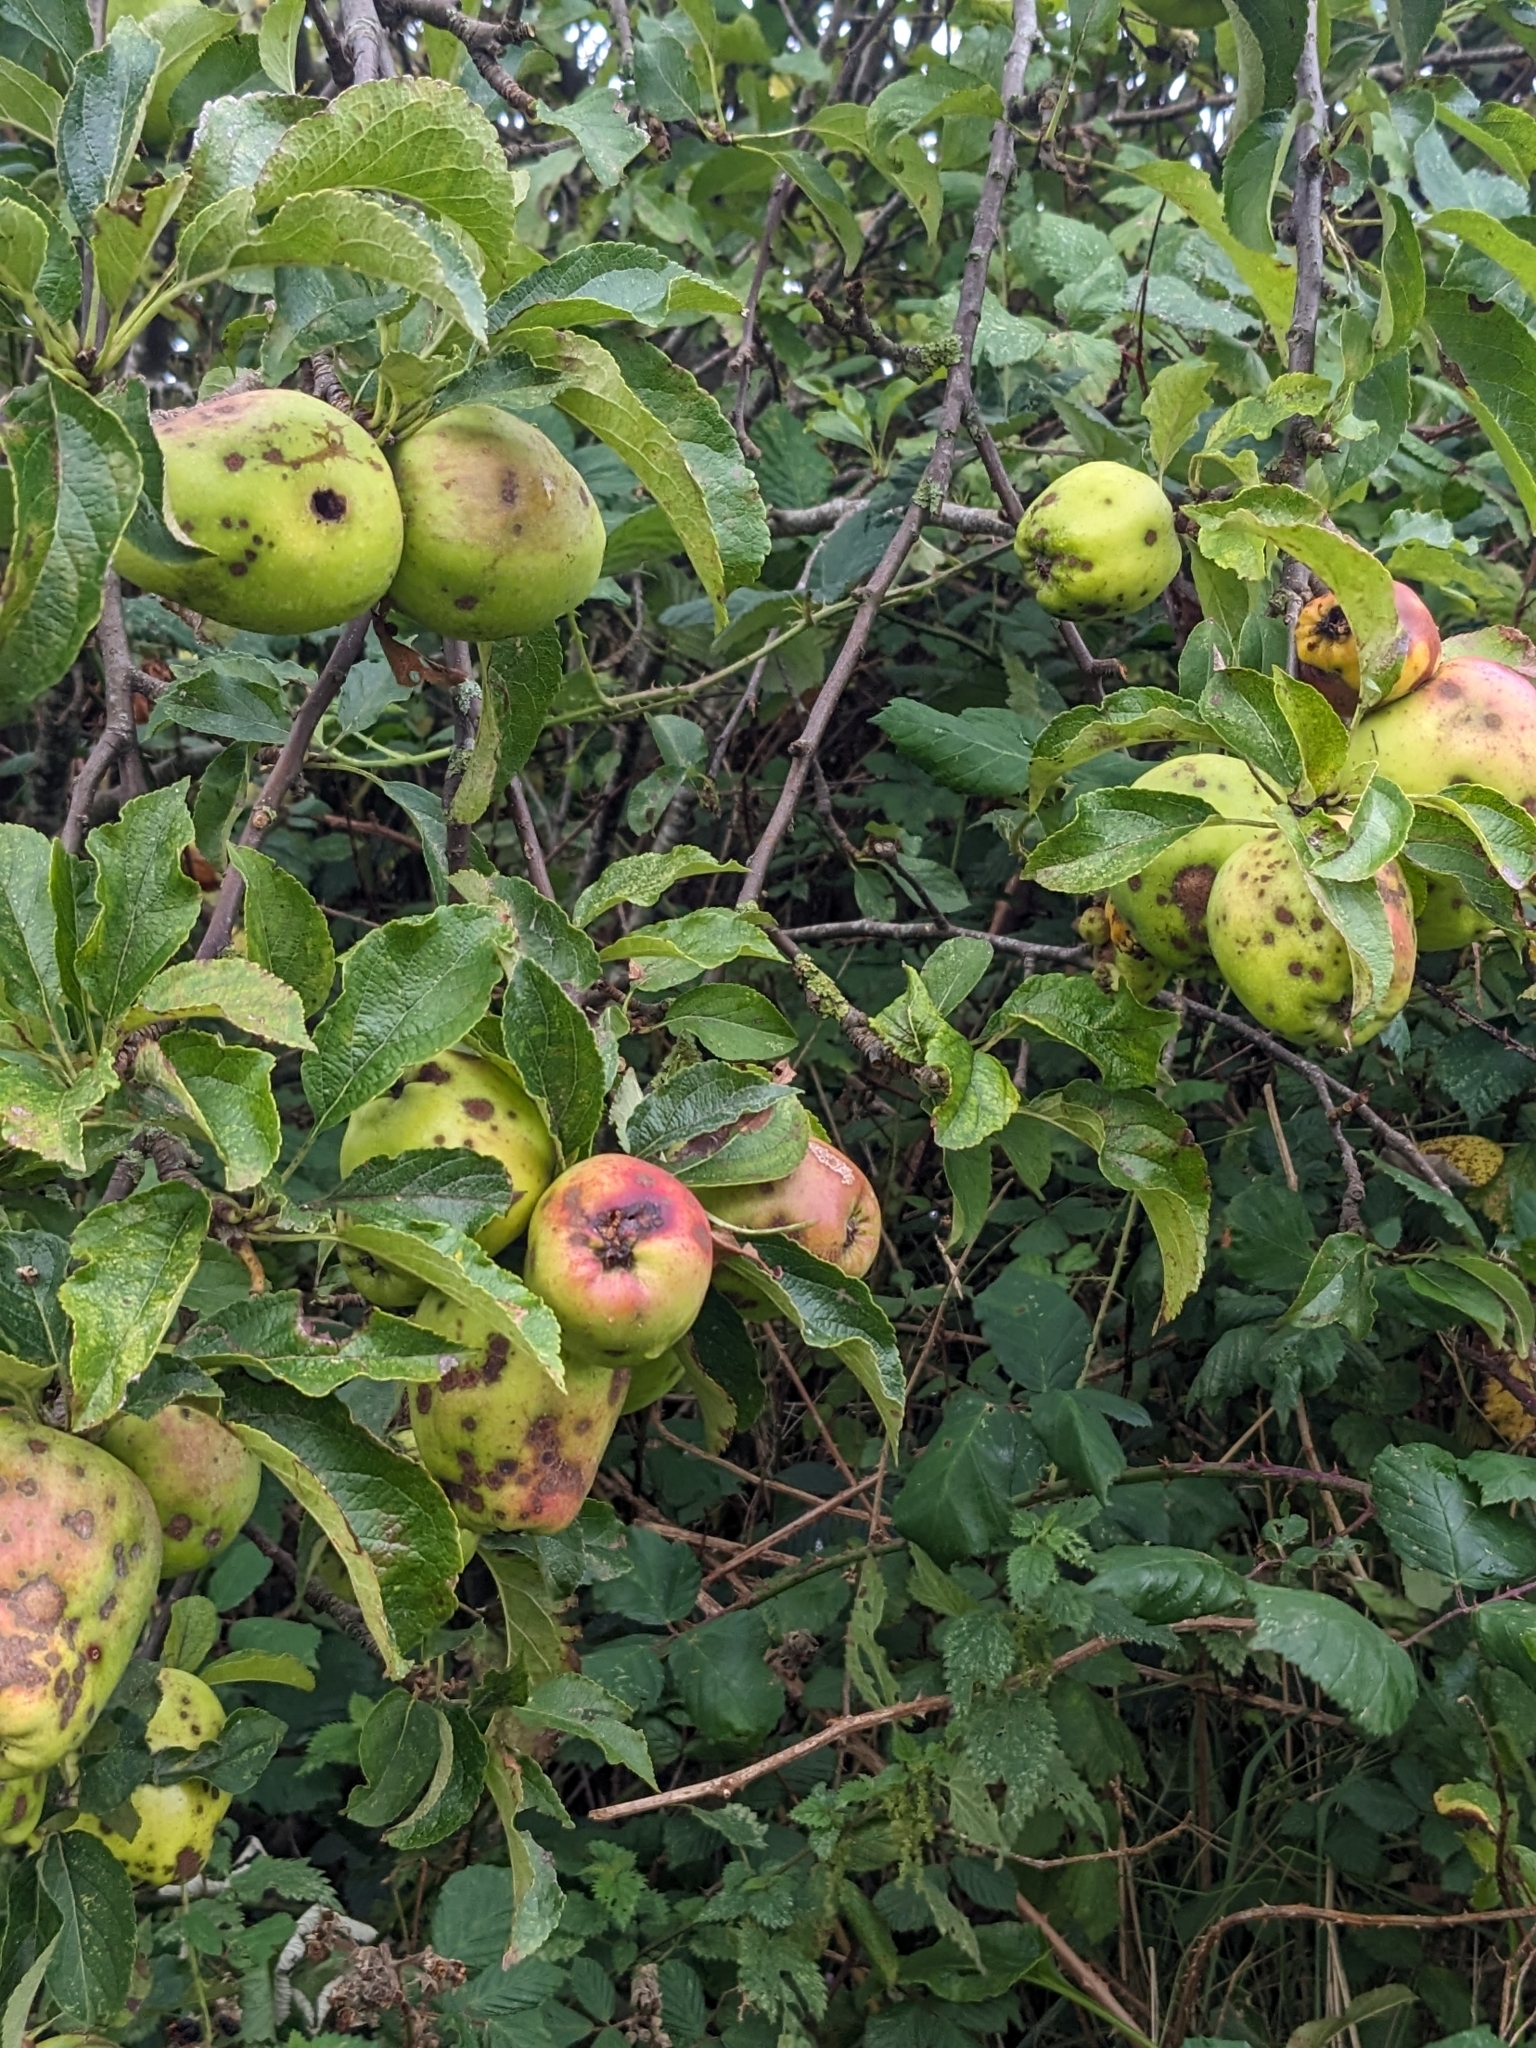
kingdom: Plantae
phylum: Tracheophyta
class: Magnoliopsida
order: Rosales
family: Rosaceae
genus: Malus
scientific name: Malus domestica
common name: Apple
